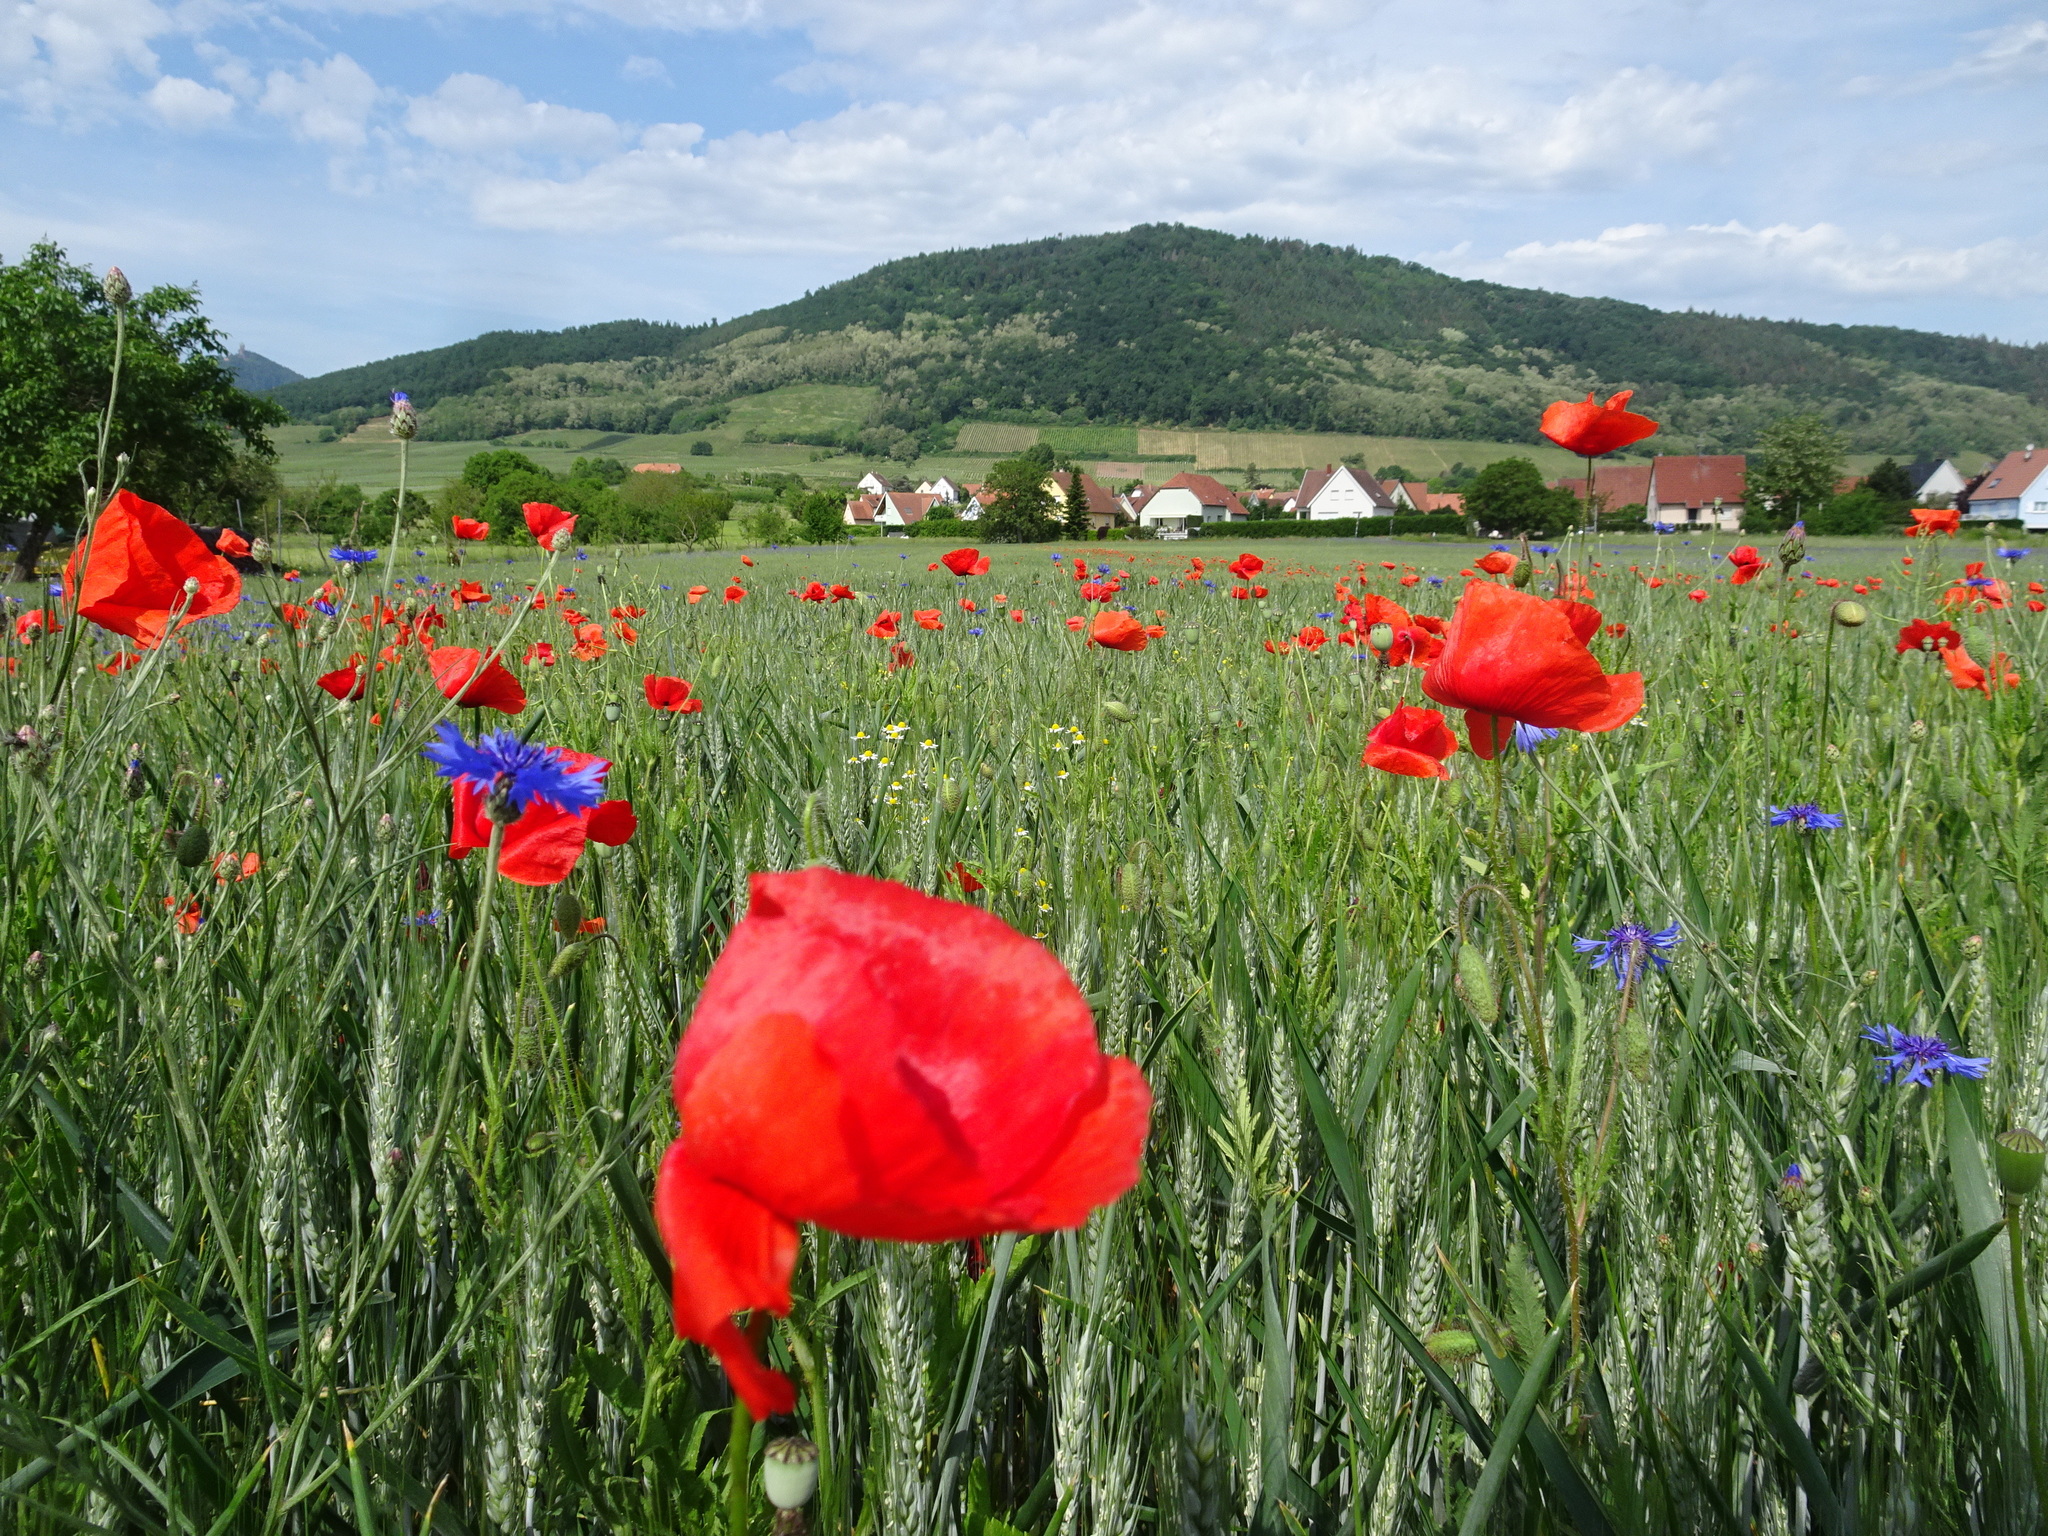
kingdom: Plantae
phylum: Tracheophyta
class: Magnoliopsida
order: Ranunculales
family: Papaveraceae
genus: Papaver
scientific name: Papaver rhoeas
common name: Corn poppy
